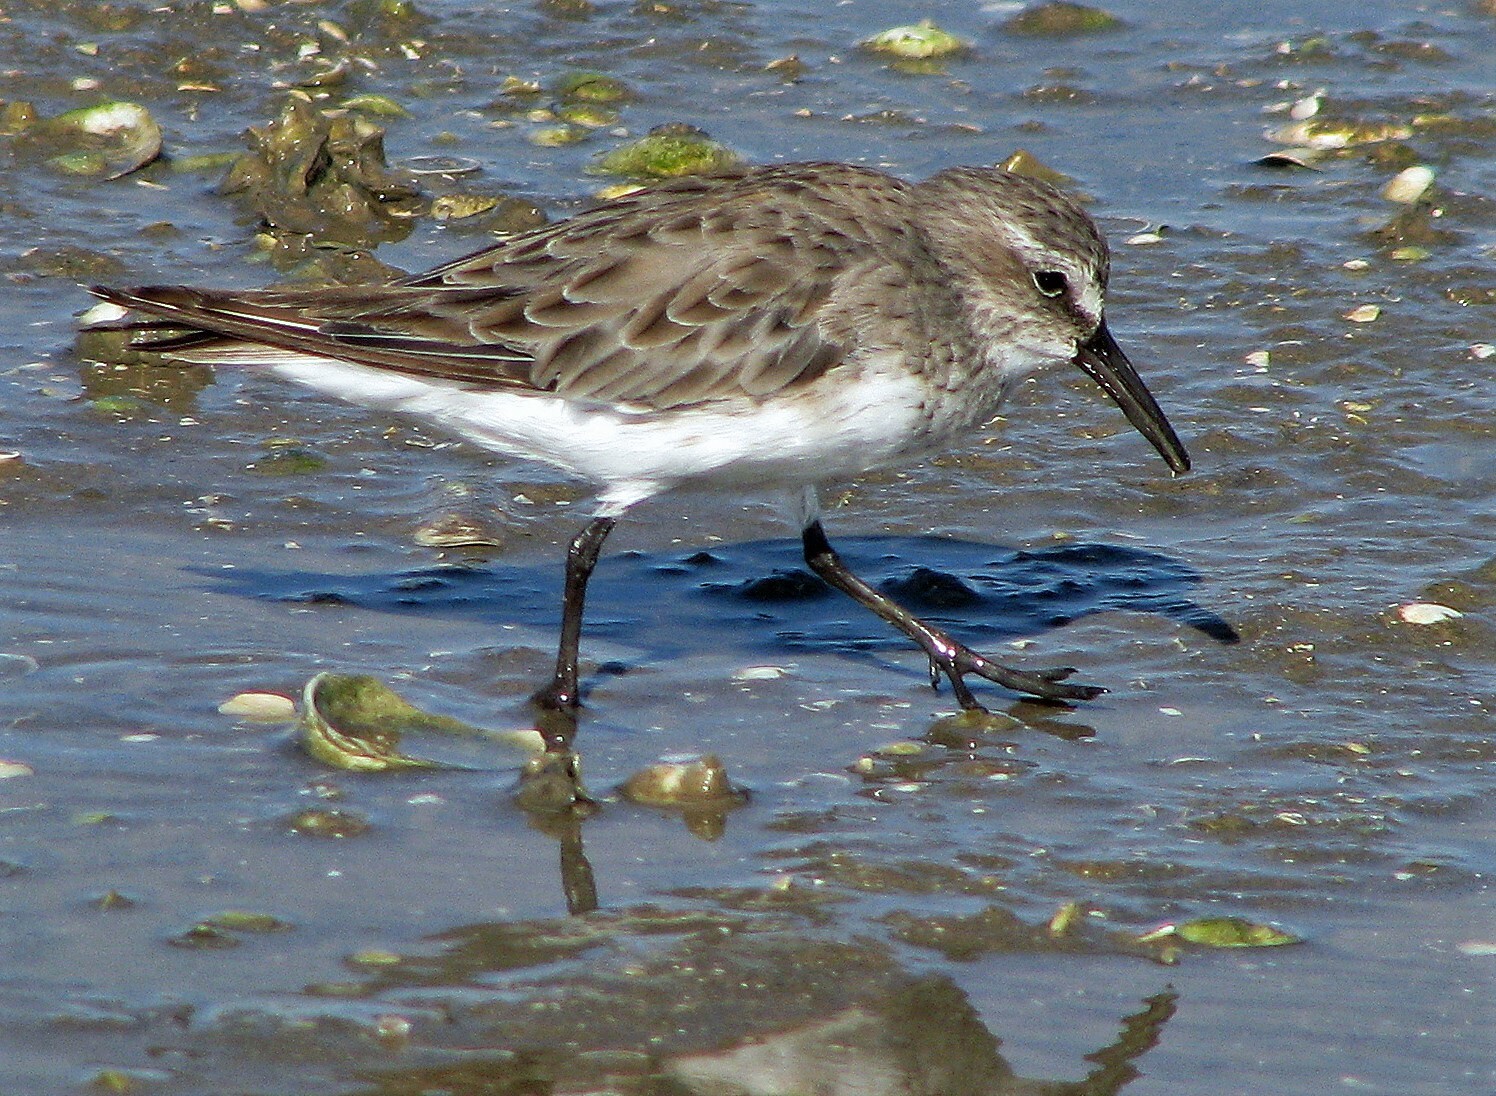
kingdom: Animalia
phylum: Chordata
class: Aves
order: Charadriiformes
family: Scolopacidae
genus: Calidris
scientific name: Calidris fuscicollis
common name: White-rumped sandpiper
